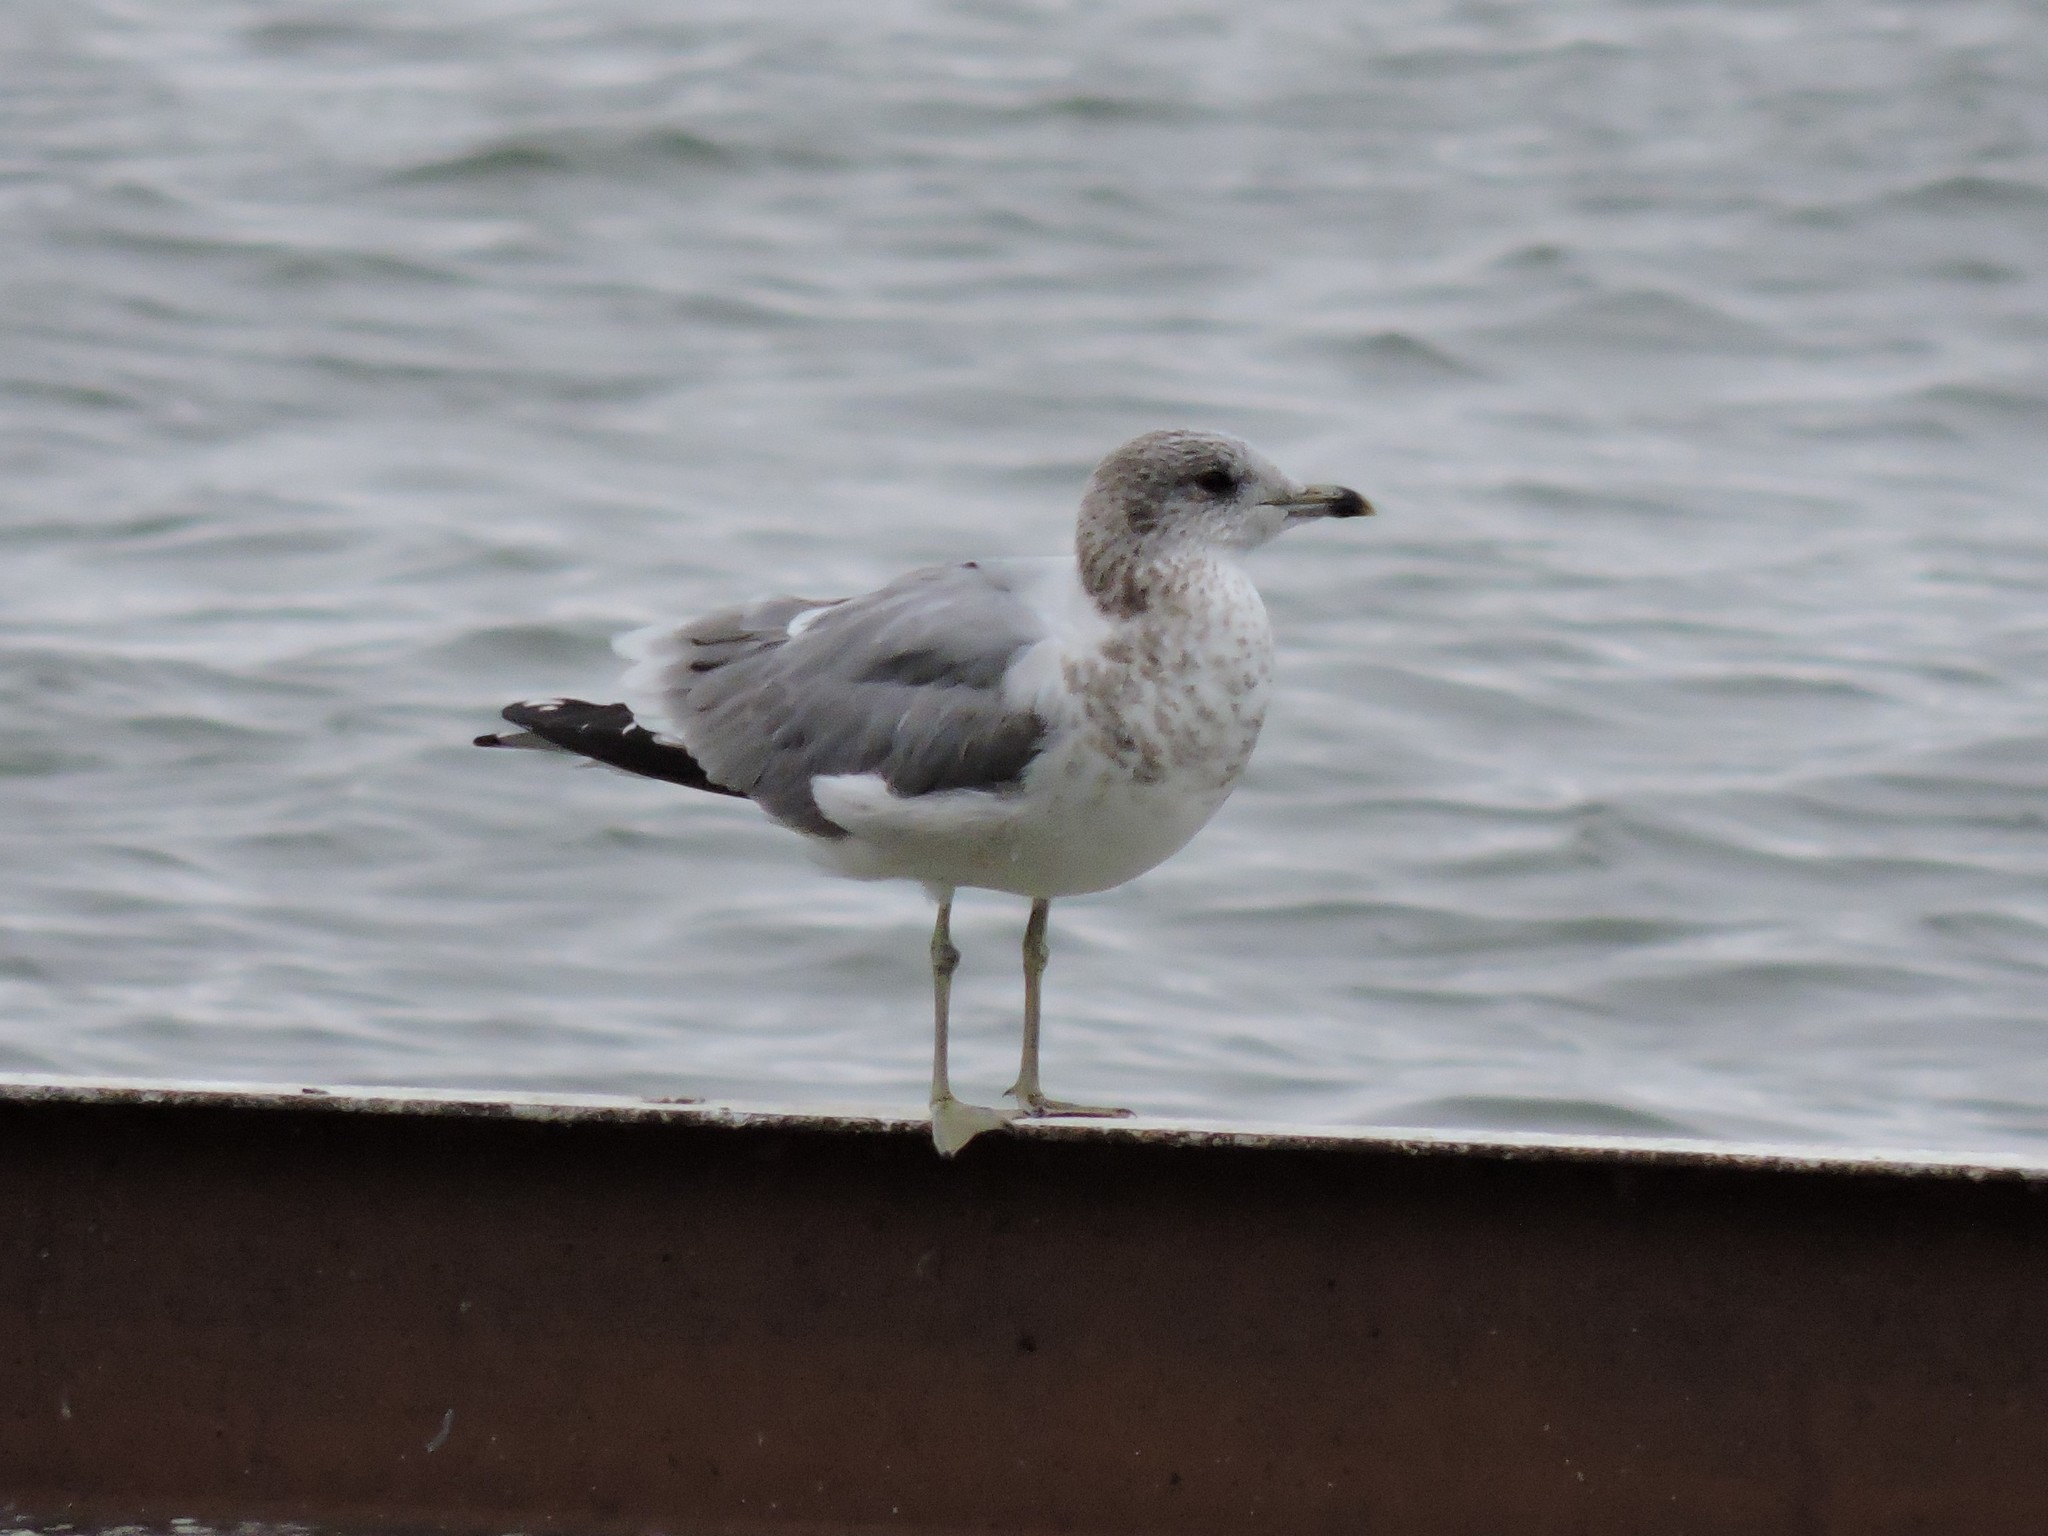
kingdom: Animalia
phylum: Chordata
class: Aves
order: Charadriiformes
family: Laridae
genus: Larus
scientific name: Larus canus
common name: Mew gull
